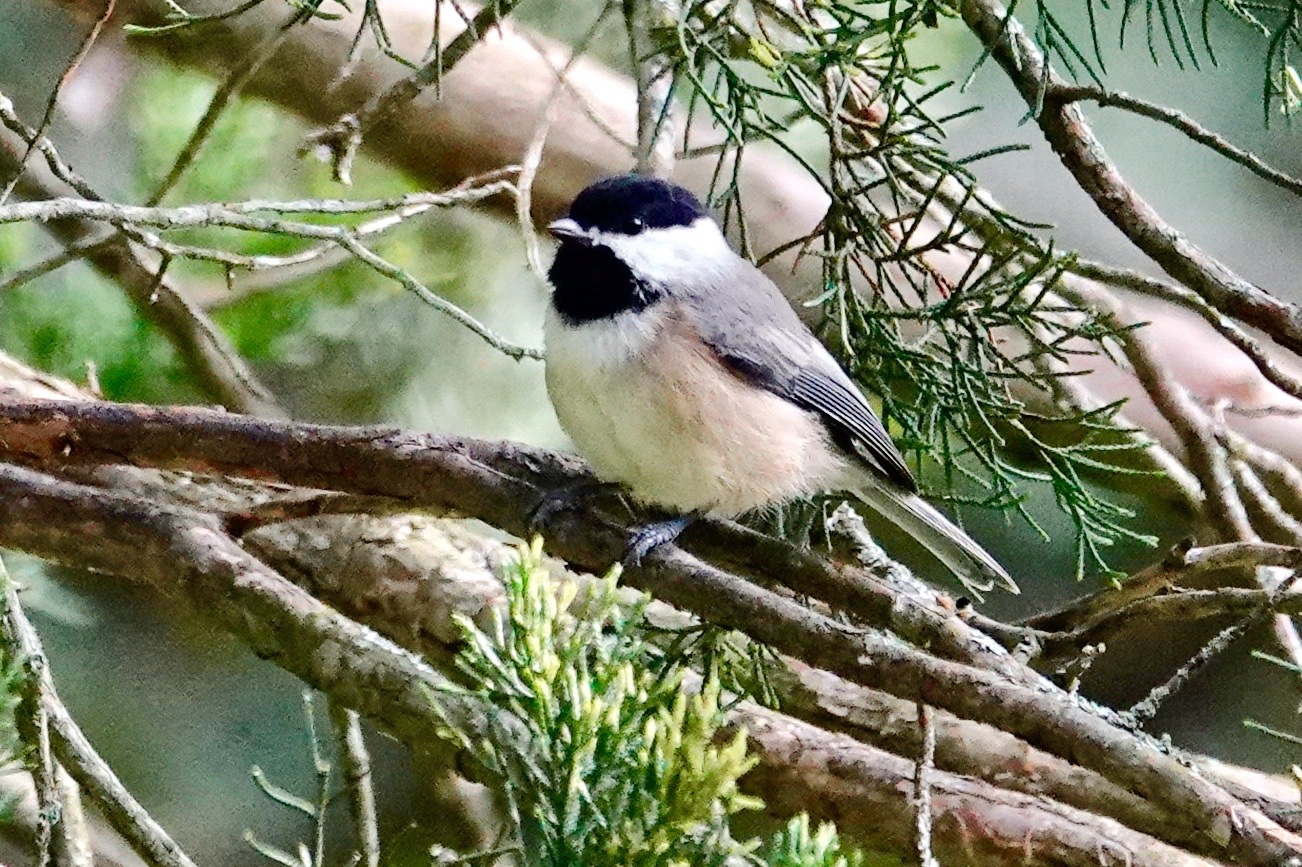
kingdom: Animalia
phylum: Chordata
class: Aves
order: Passeriformes
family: Paridae
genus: Poecile
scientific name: Poecile carolinensis
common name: Carolina chickadee
